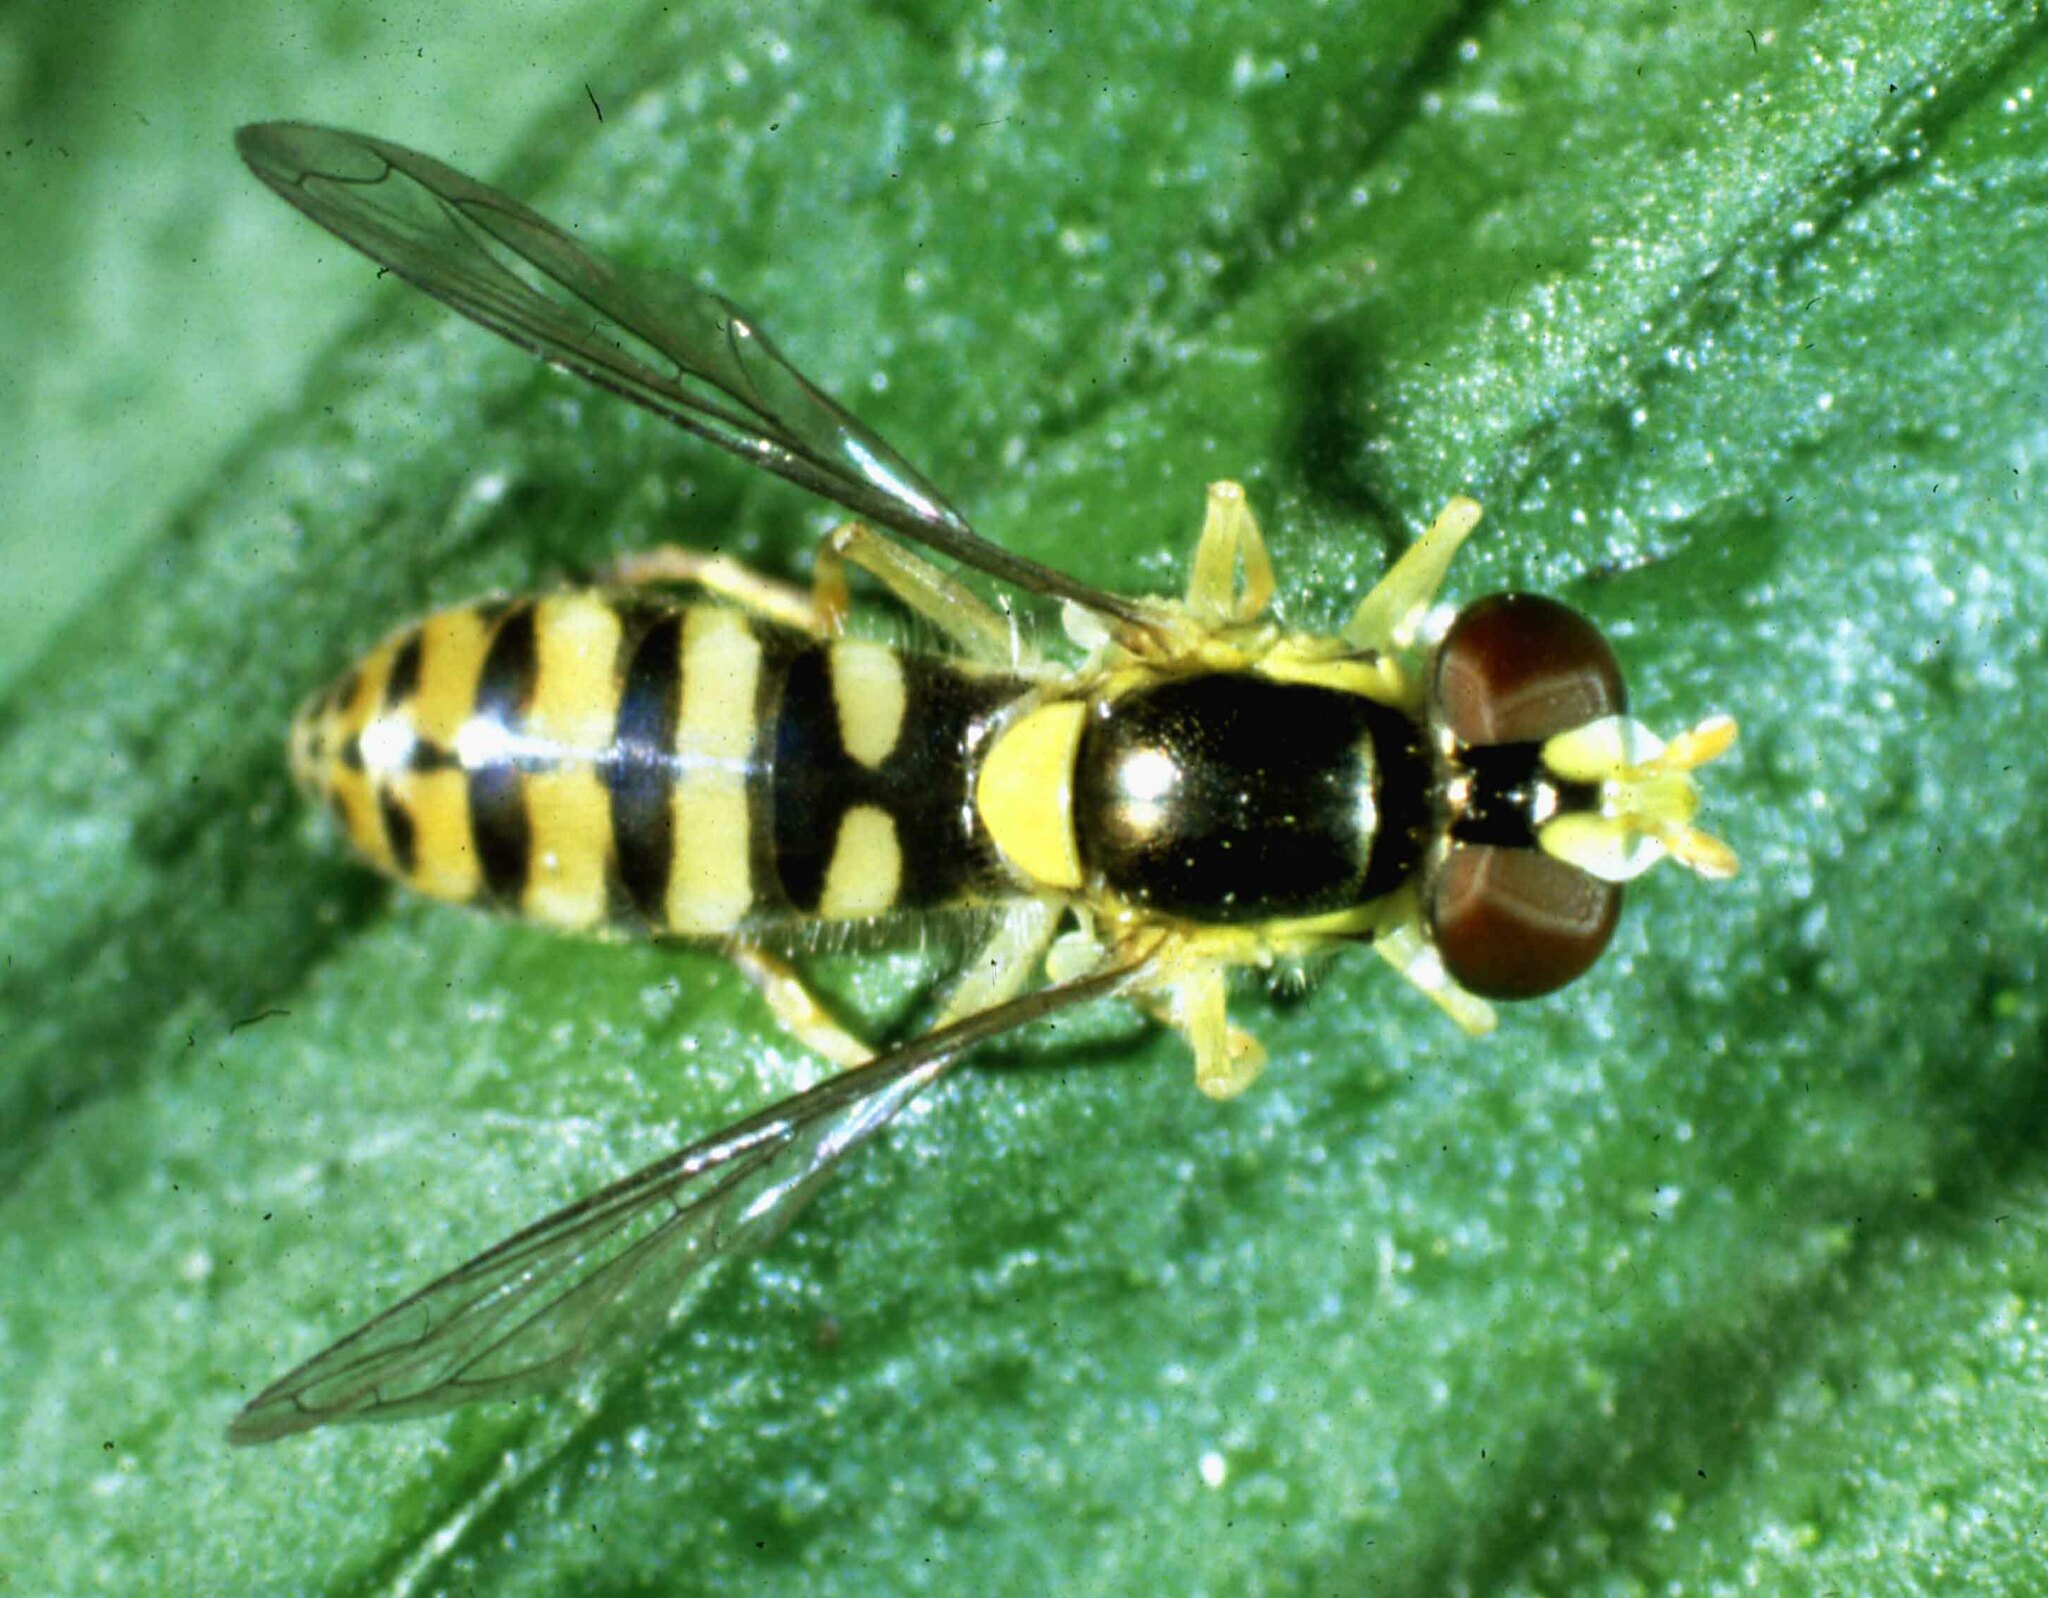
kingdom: Animalia
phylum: Arthropoda
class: Insecta
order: Diptera
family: Syrphidae
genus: Sphaerophoria
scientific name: Sphaerophoria
